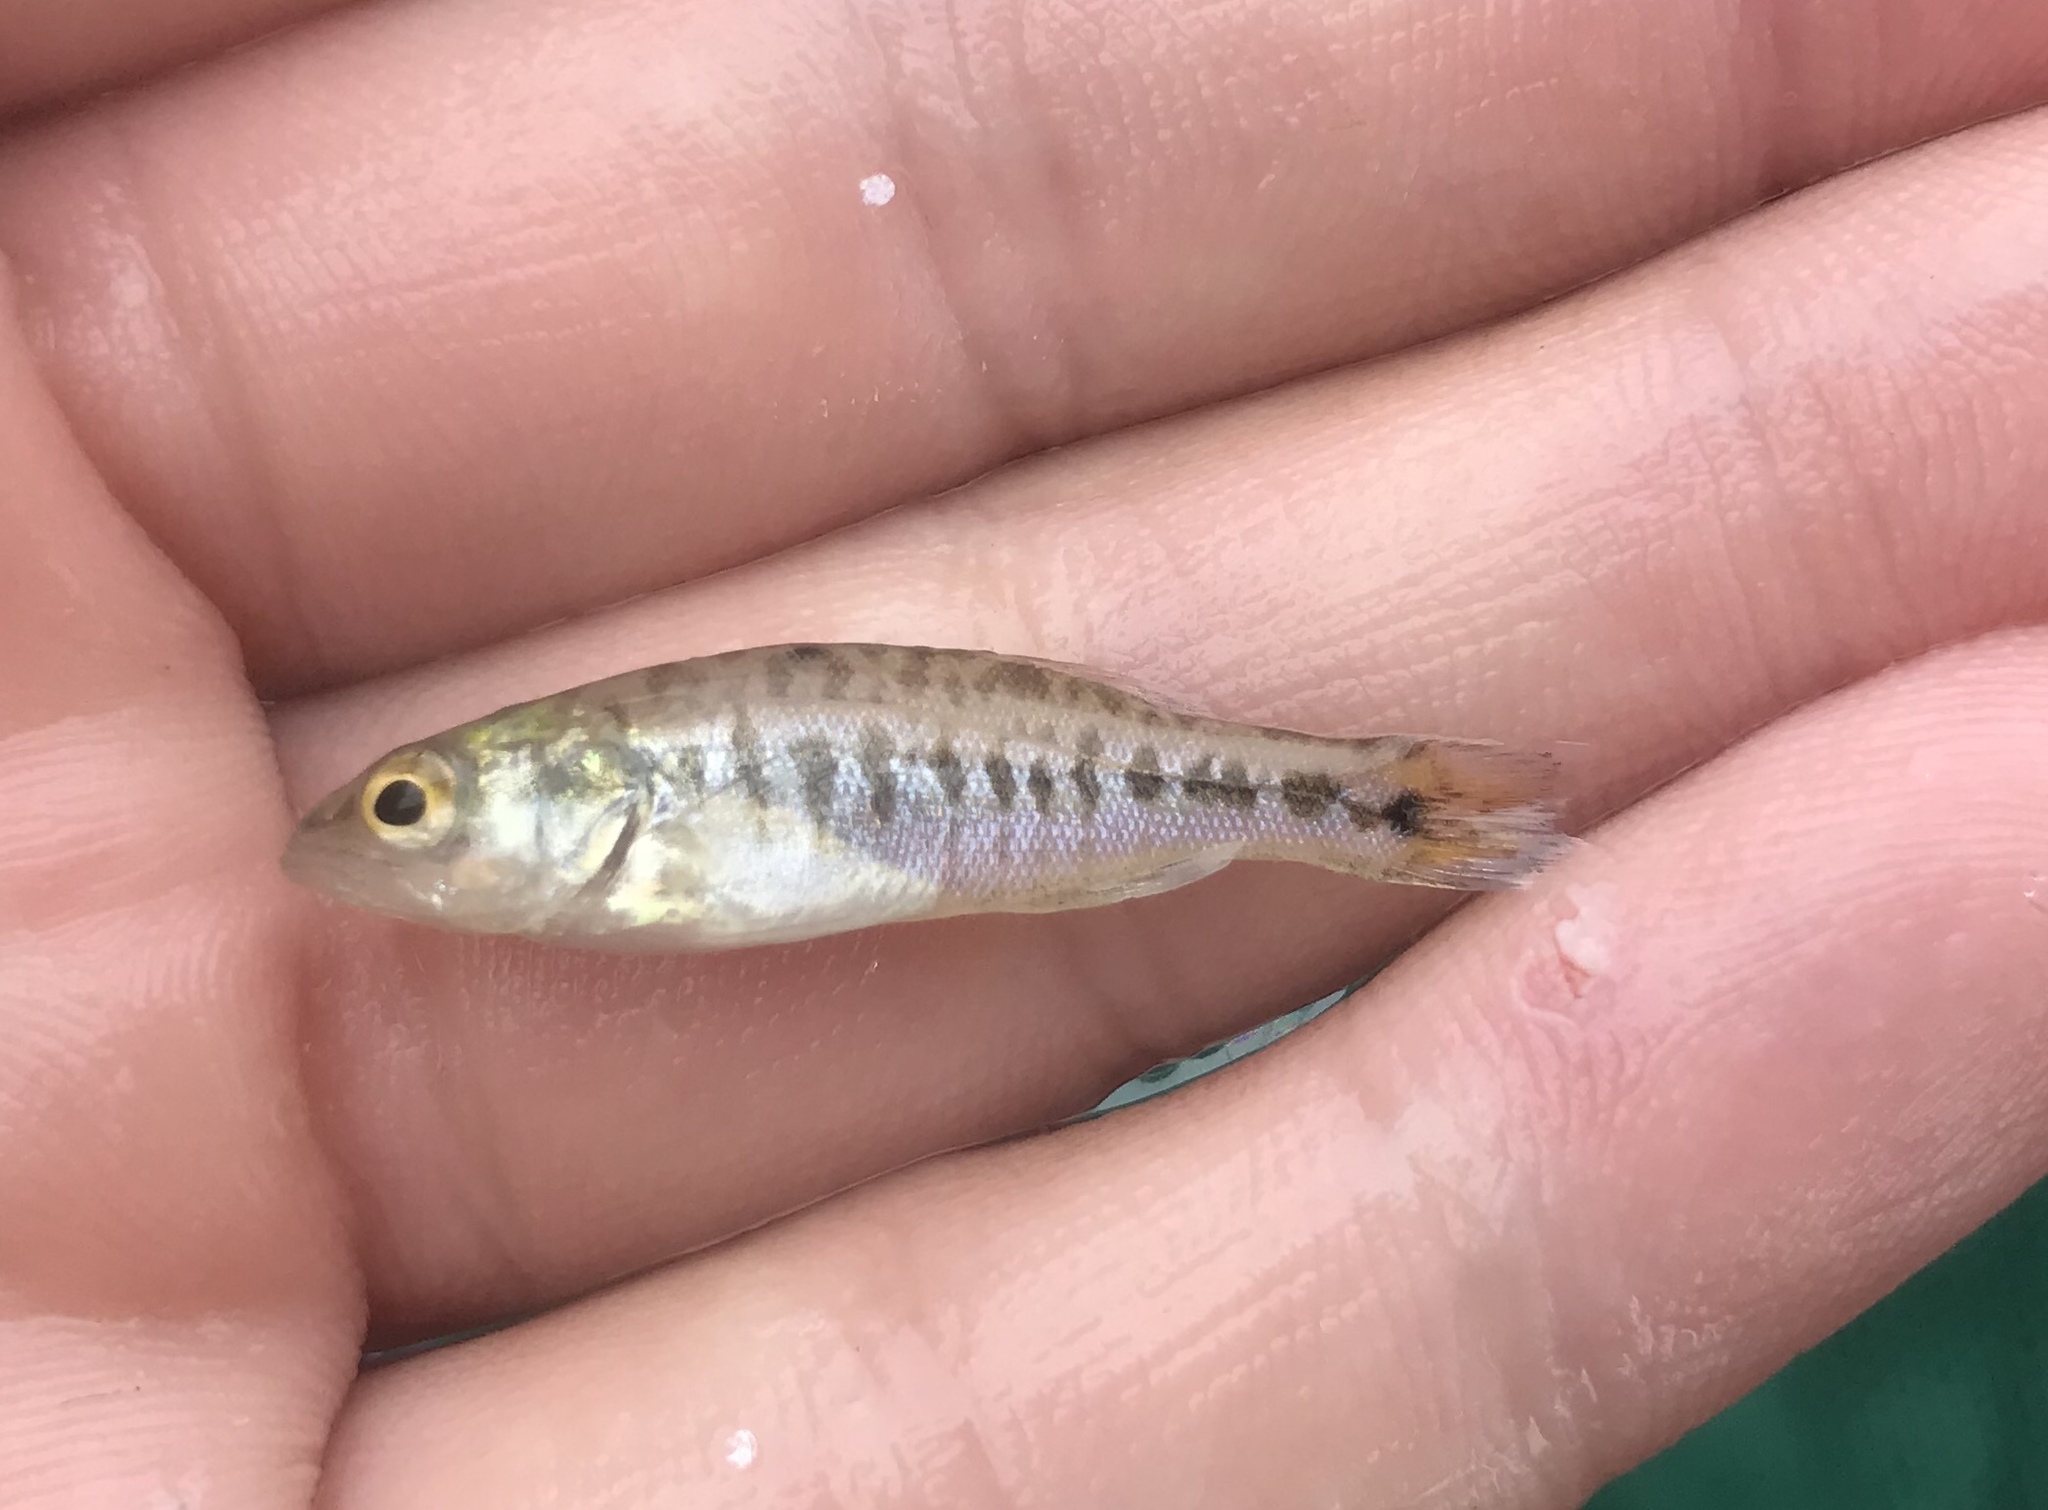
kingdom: Animalia
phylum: Chordata
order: Perciformes
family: Centrarchidae
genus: Micropterus
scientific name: Micropterus treculii
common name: Guadalupe bass
